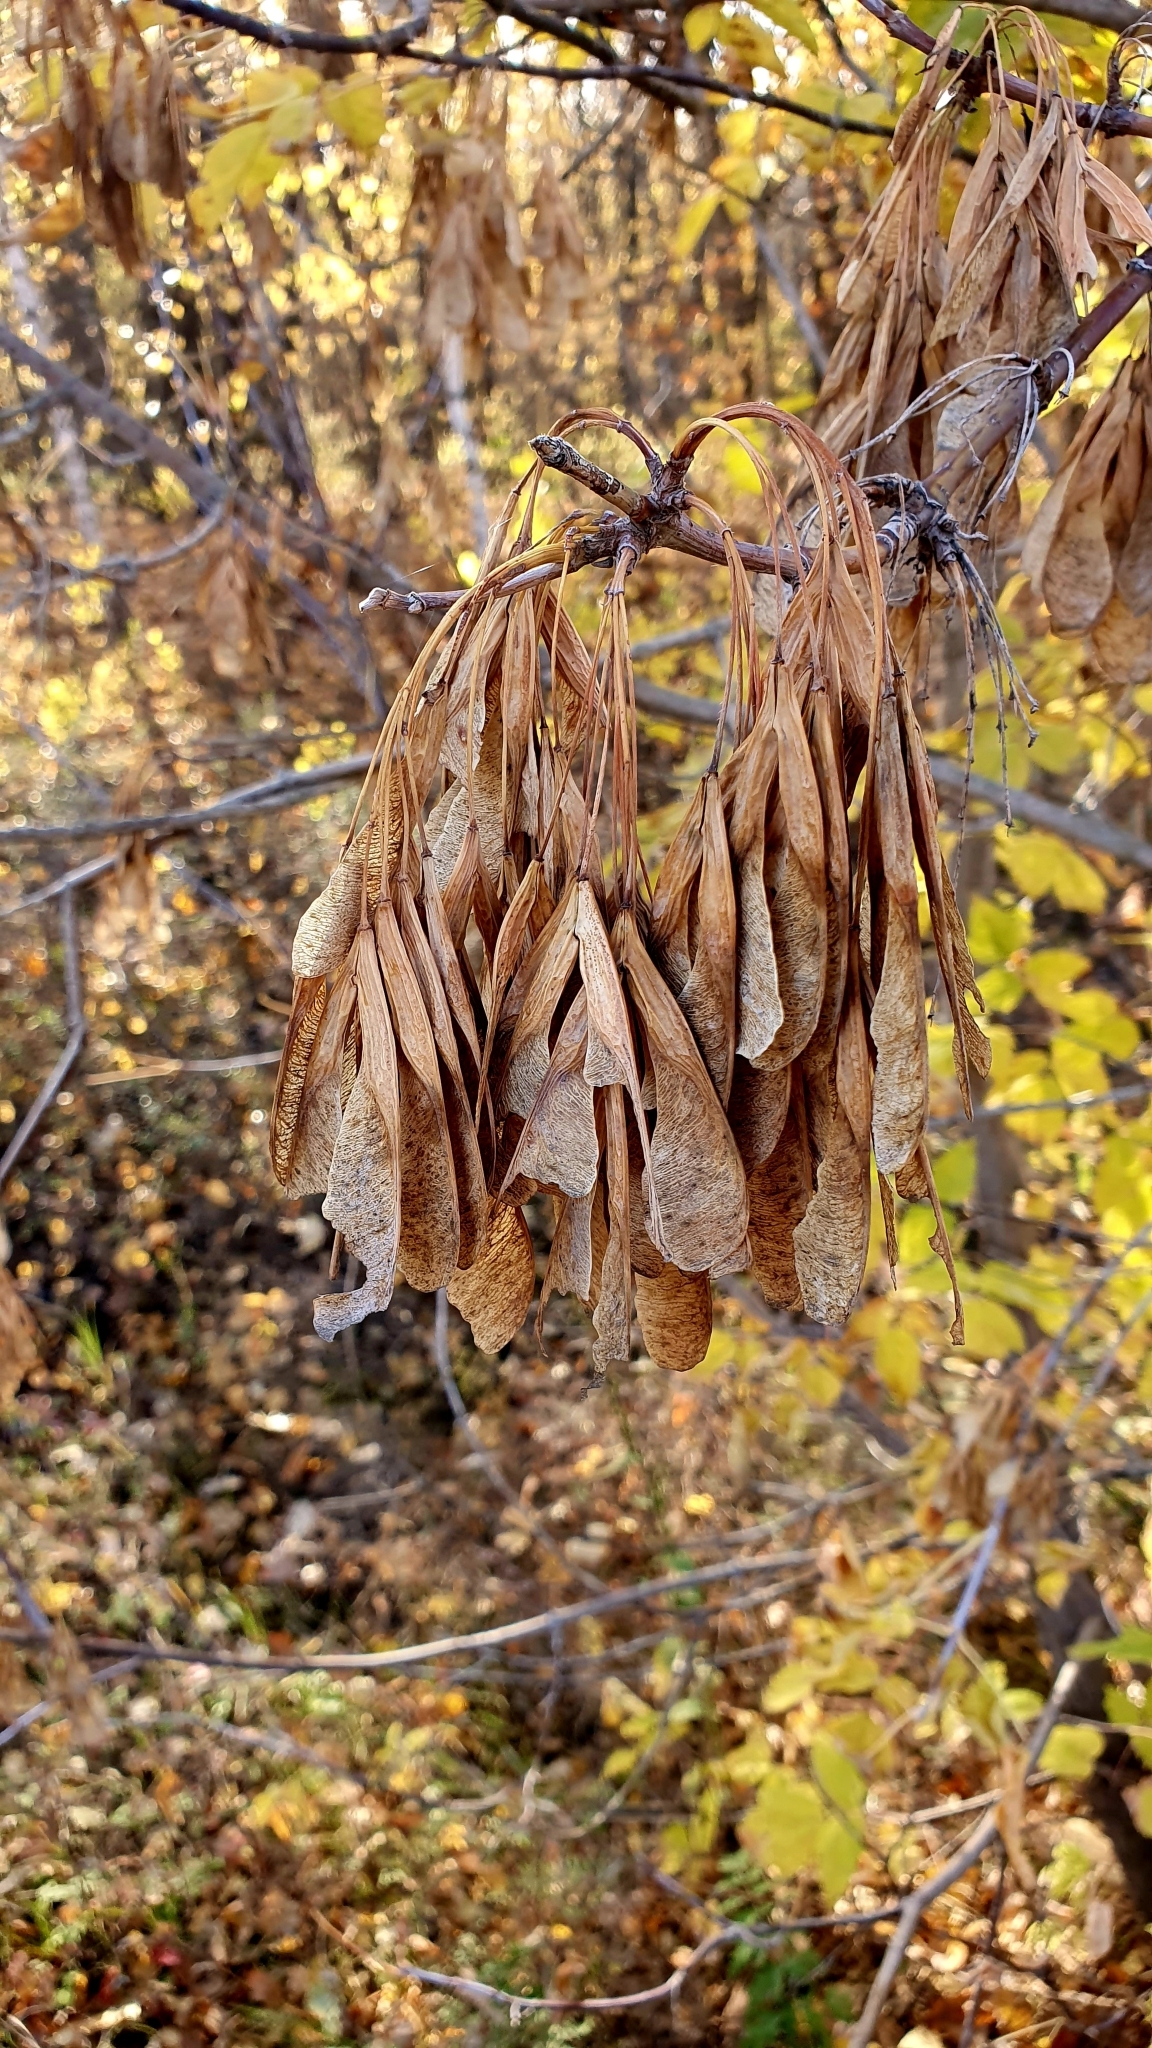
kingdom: Plantae
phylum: Tracheophyta
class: Magnoliopsida
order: Sapindales
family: Sapindaceae
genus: Acer
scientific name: Acer negundo
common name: Ashleaf maple
